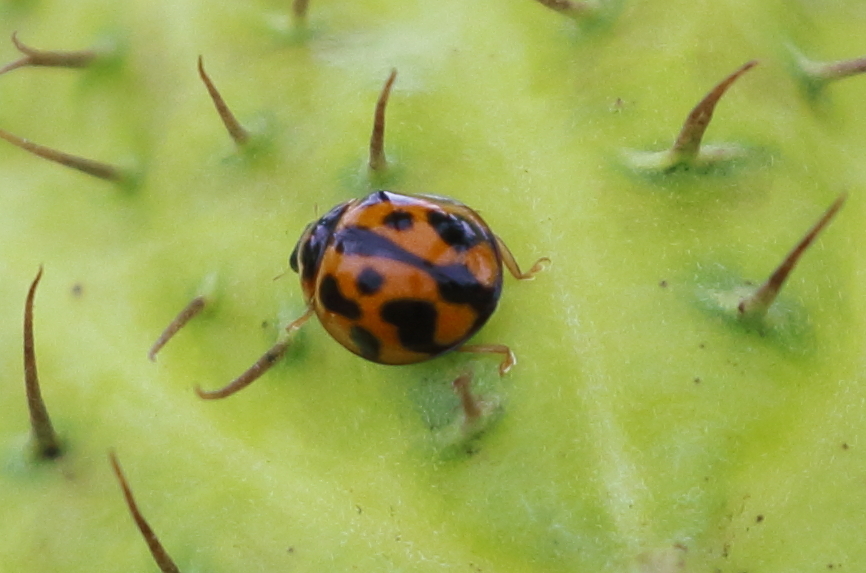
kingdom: Animalia
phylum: Arthropoda
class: Insecta
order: Coleoptera
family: Coccinellidae
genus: Coelophora
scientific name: Coelophora inaequalis
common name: Common australian lady beetle
